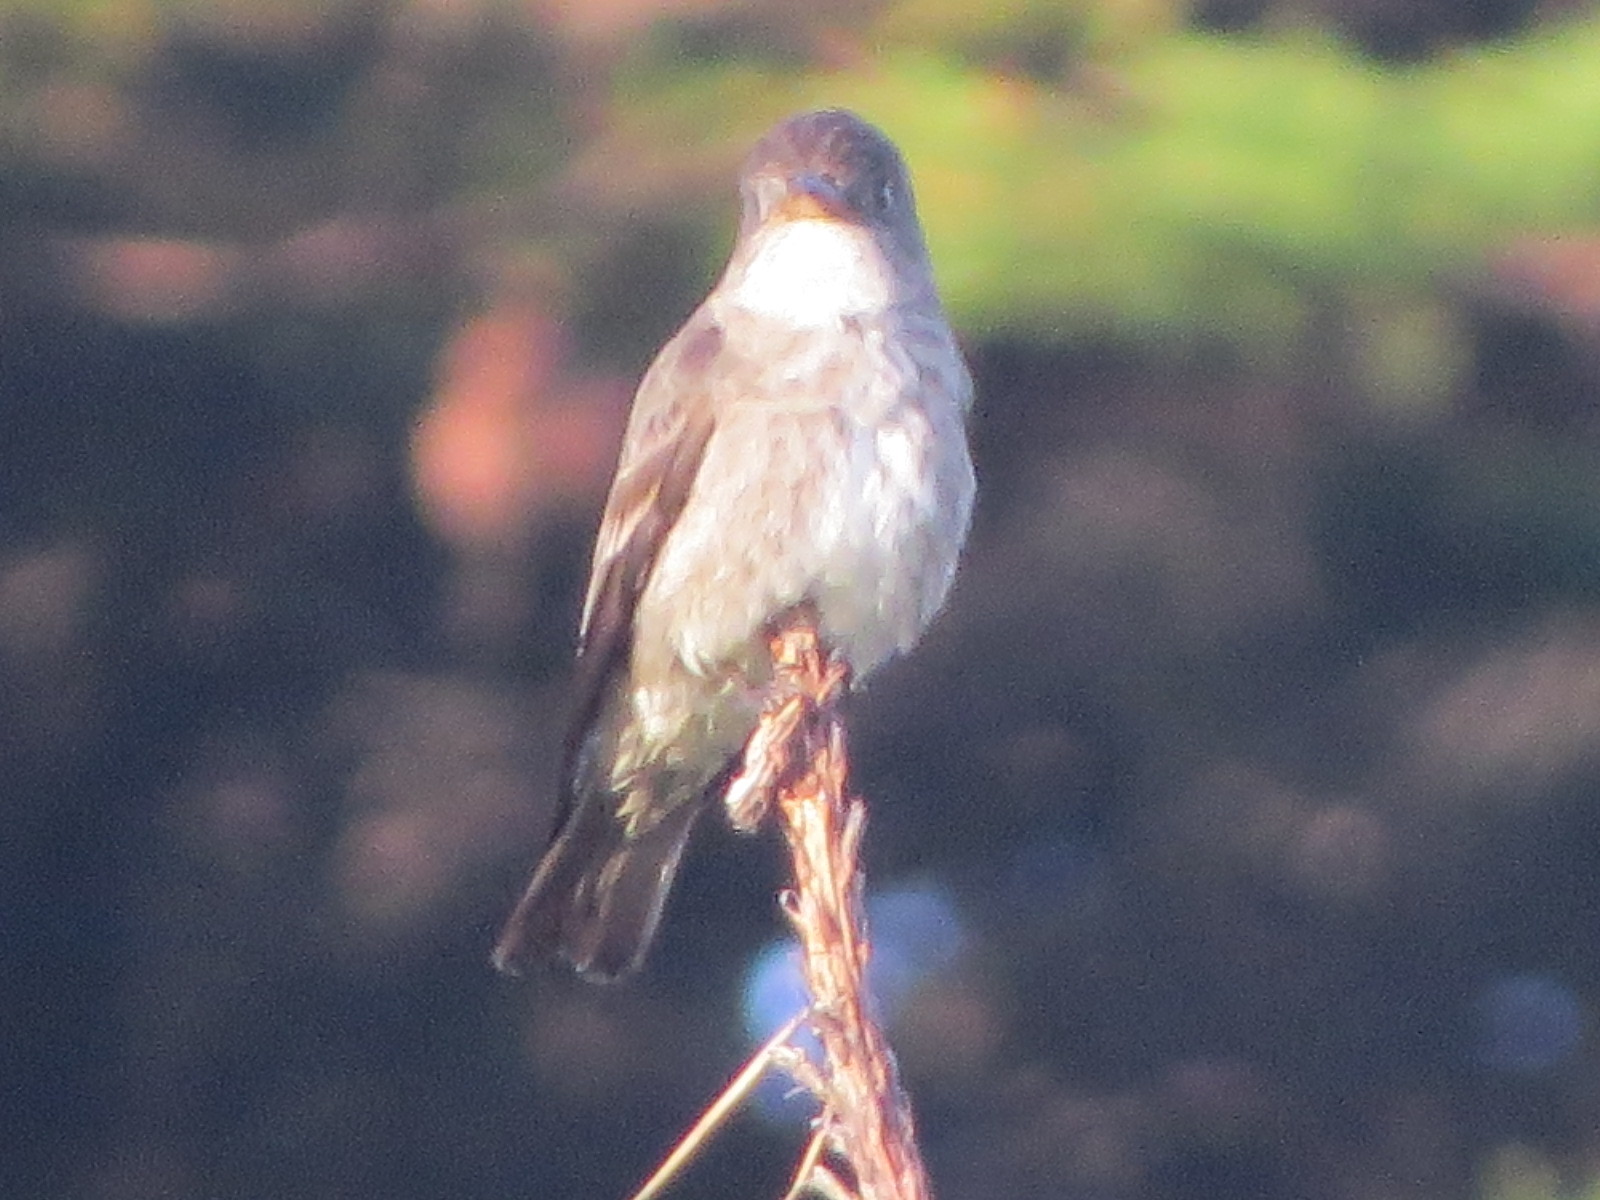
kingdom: Animalia
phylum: Chordata
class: Aves
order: Passeriformes
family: Tyrannidae
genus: Contopus
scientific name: Contopus cooperi
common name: Olive-sided flycatcher
